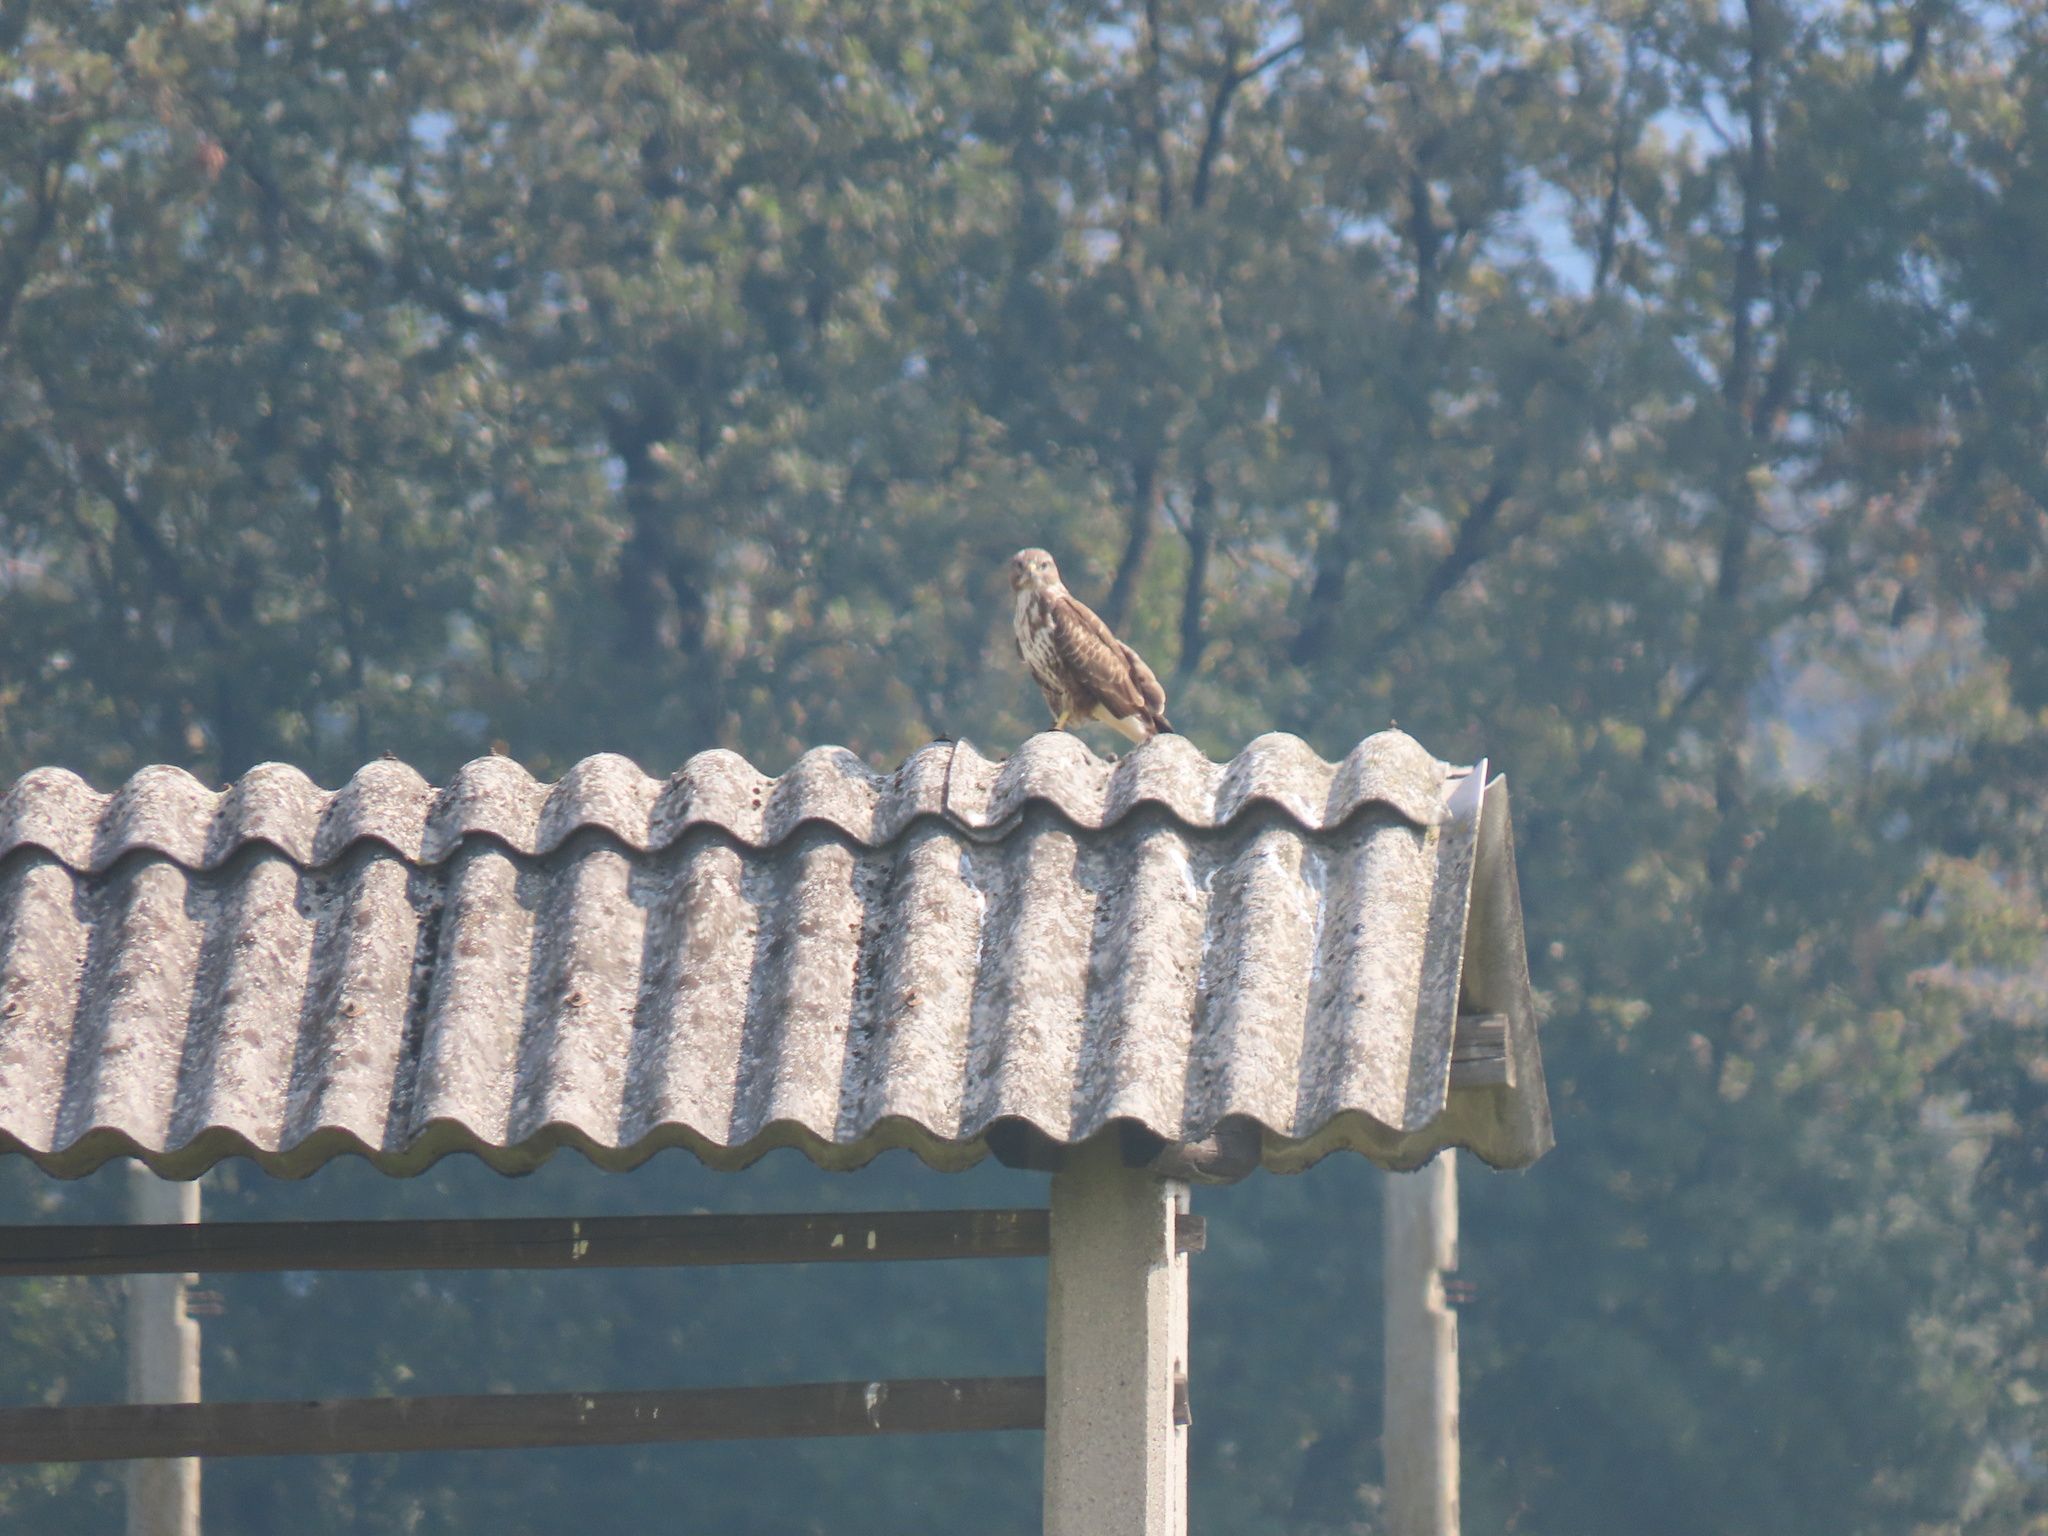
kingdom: Animalia
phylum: Chordata
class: Aves
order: Accipitriformes
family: Accipitridae
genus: Buteo
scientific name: Buteo buteo
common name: Common buzzard
